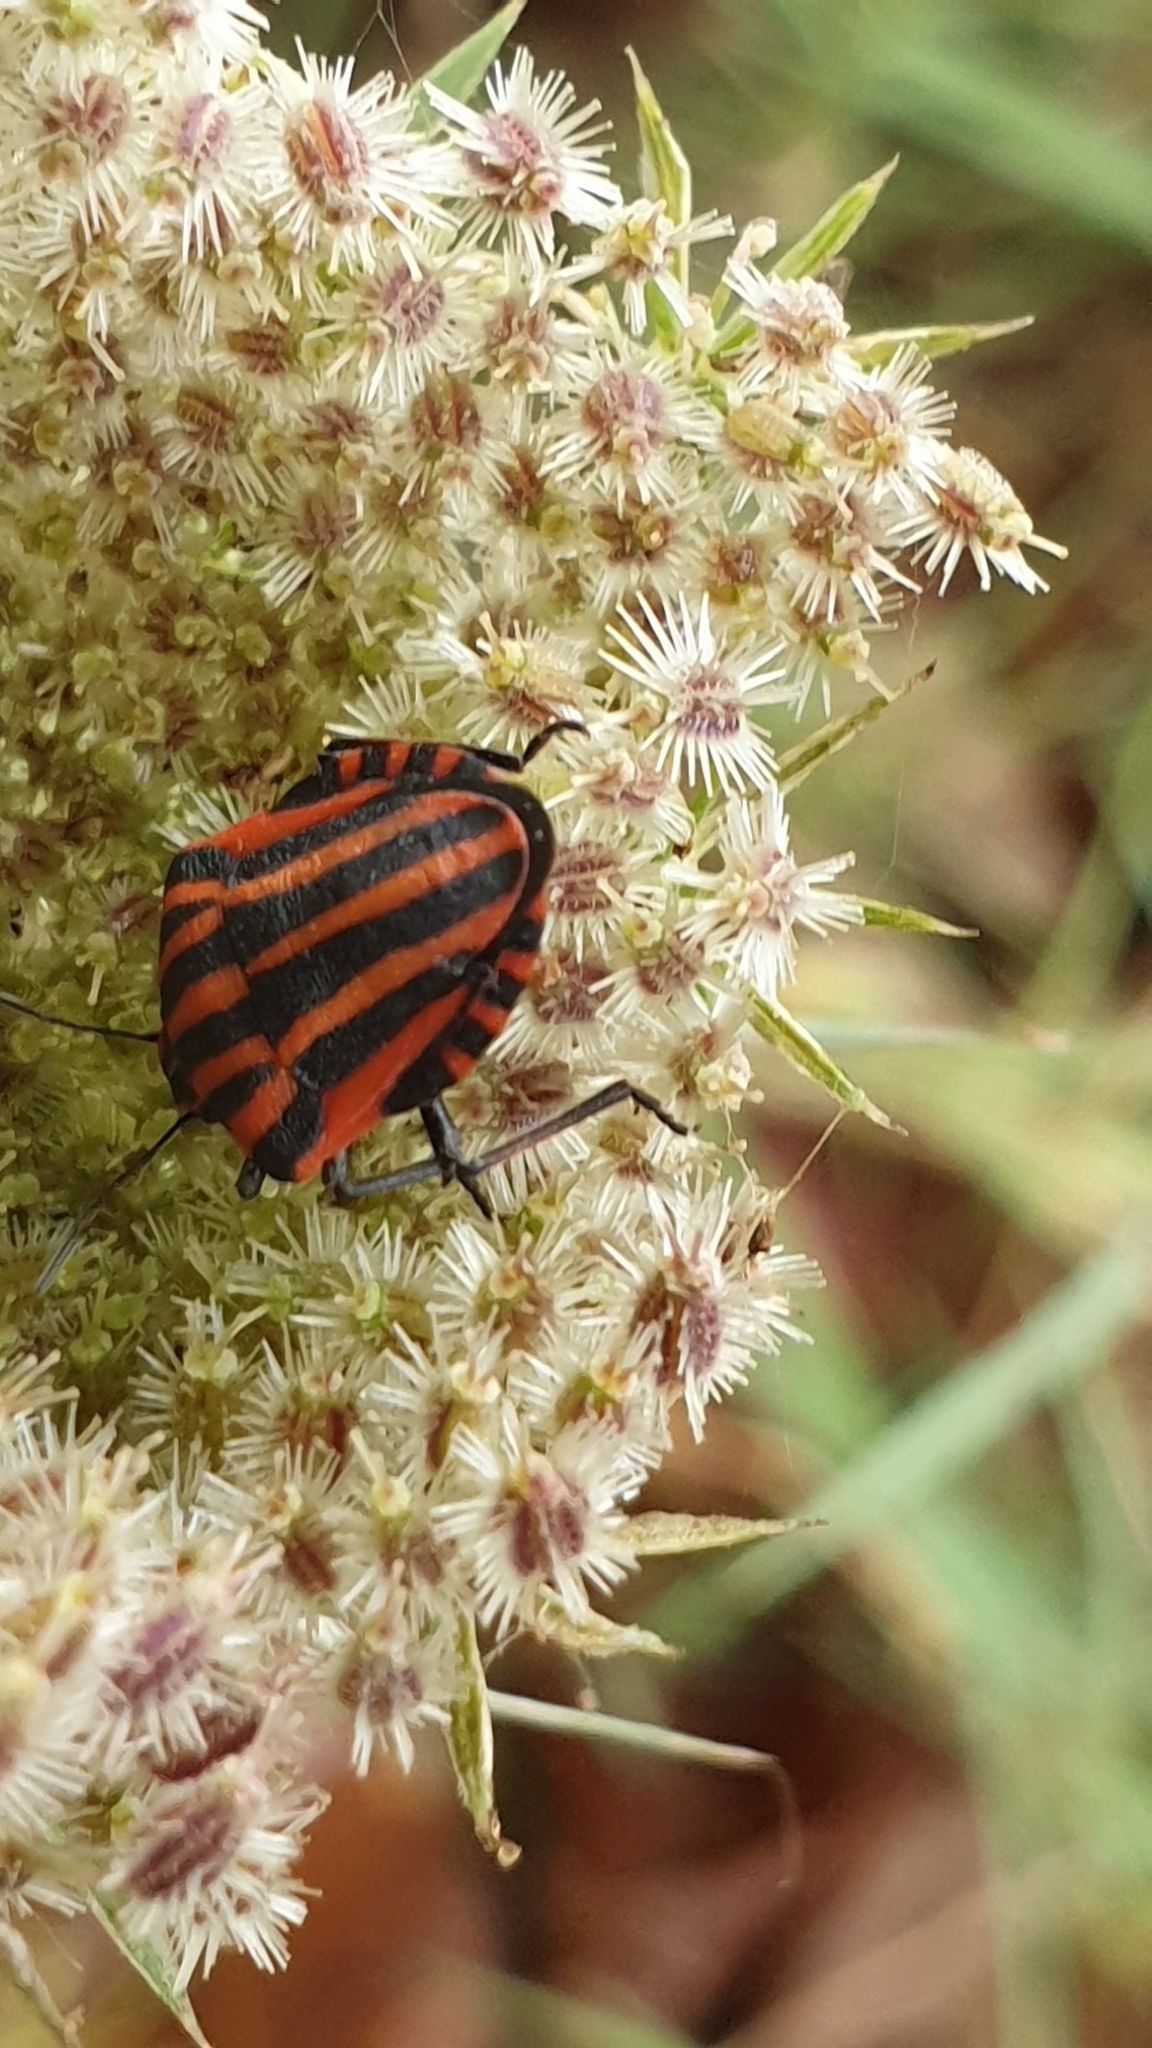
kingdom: Animalia
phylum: Arthropoda
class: Insecta
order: Hemiptera
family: Pentatomidae
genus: Graphosoma
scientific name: Graphosoma italicum
